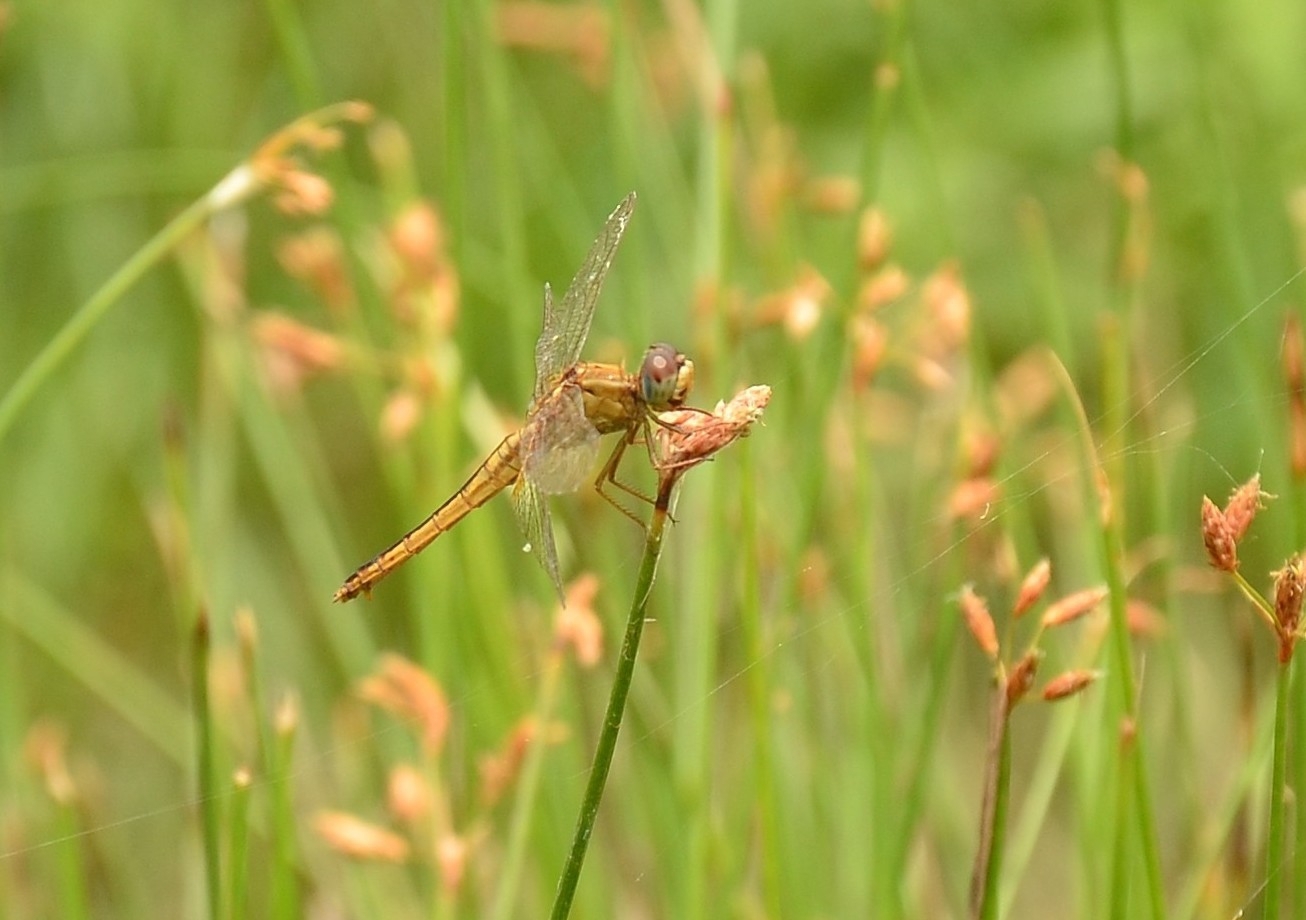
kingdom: Animalia
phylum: Arthropoda
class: Insecta
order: Odonata
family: Libellulidae
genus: Crocothemis
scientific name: Crocothemis servilia
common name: Scarlet skimmer
